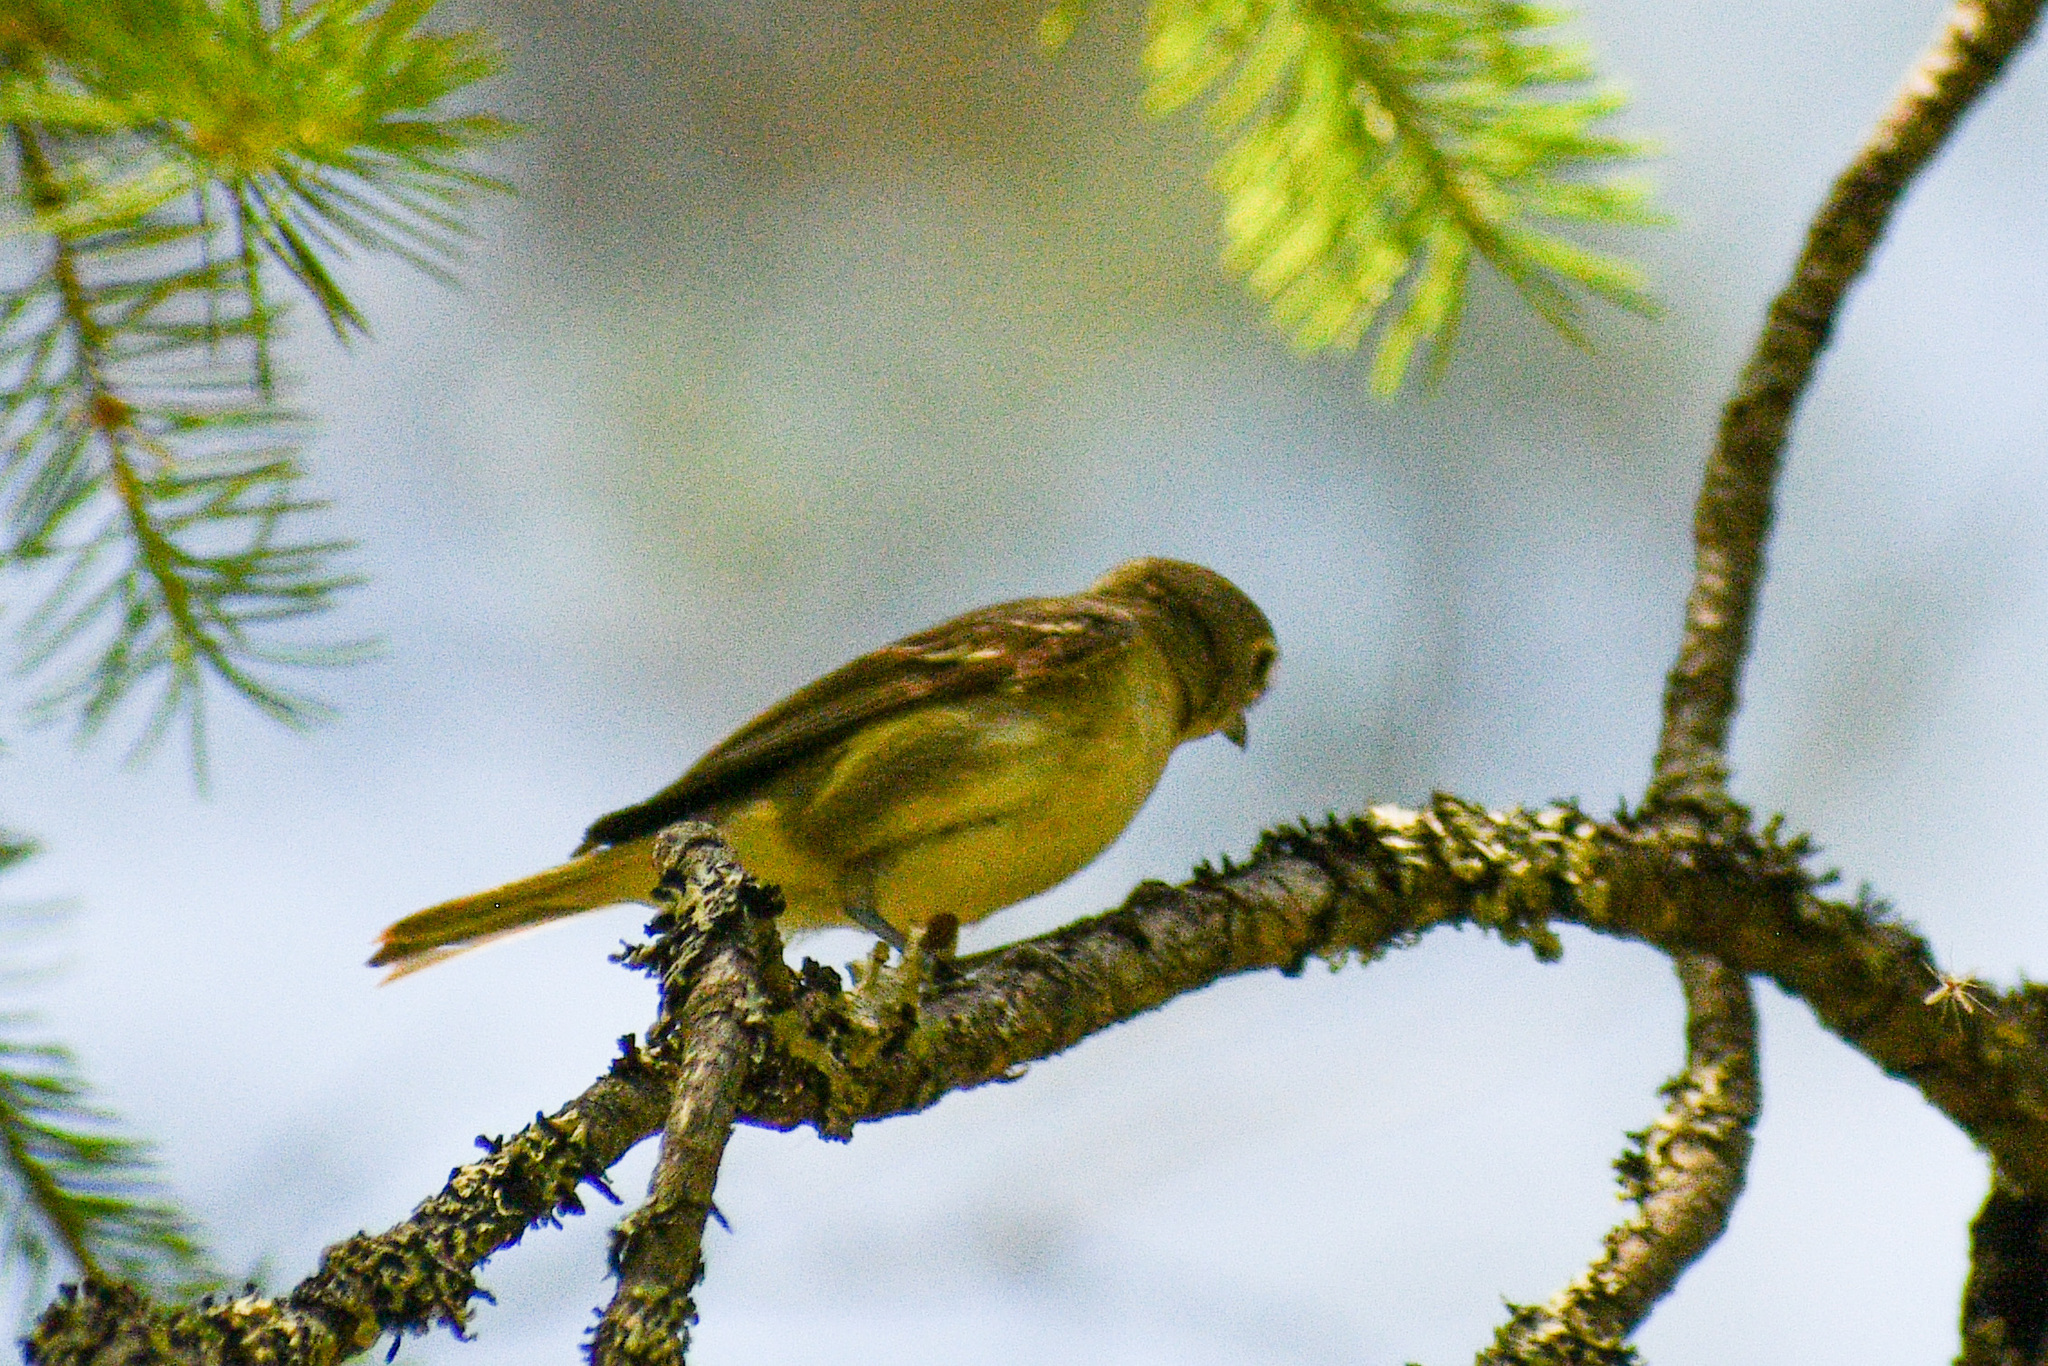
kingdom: Animalia
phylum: Chordata
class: Aves
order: Passeriformes
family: Vireonidae
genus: Vireo
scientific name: Vireo cassinii
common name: Cassin's vireo
